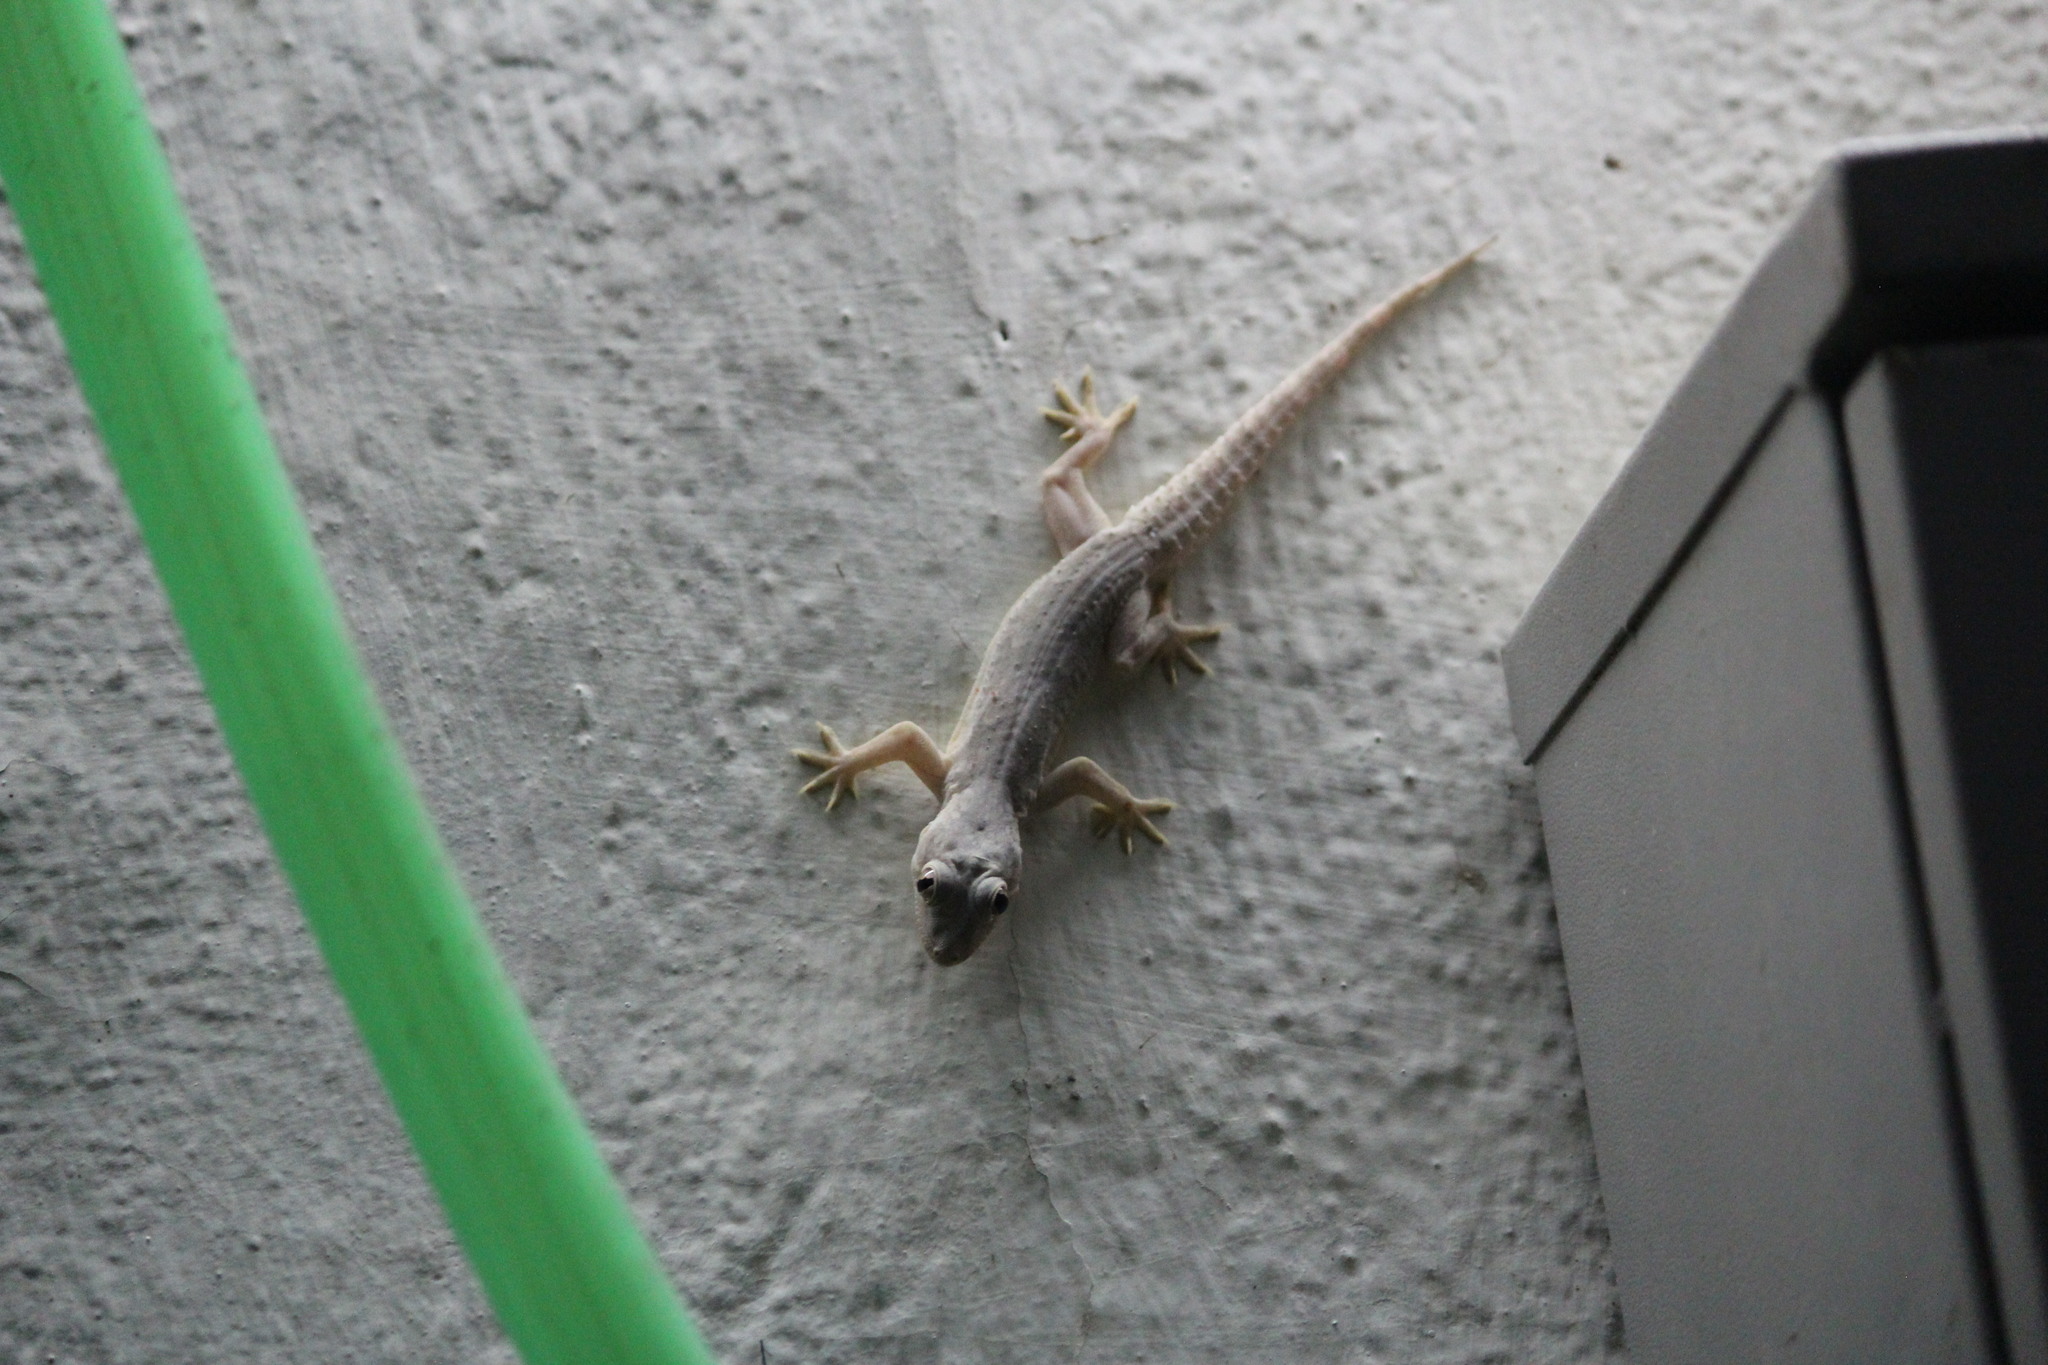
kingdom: Animalia
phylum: Chordata
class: Squamata
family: Gekkonidae
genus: Hemidactylus
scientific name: Hemidactylus frenatus
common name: Common house gecko
